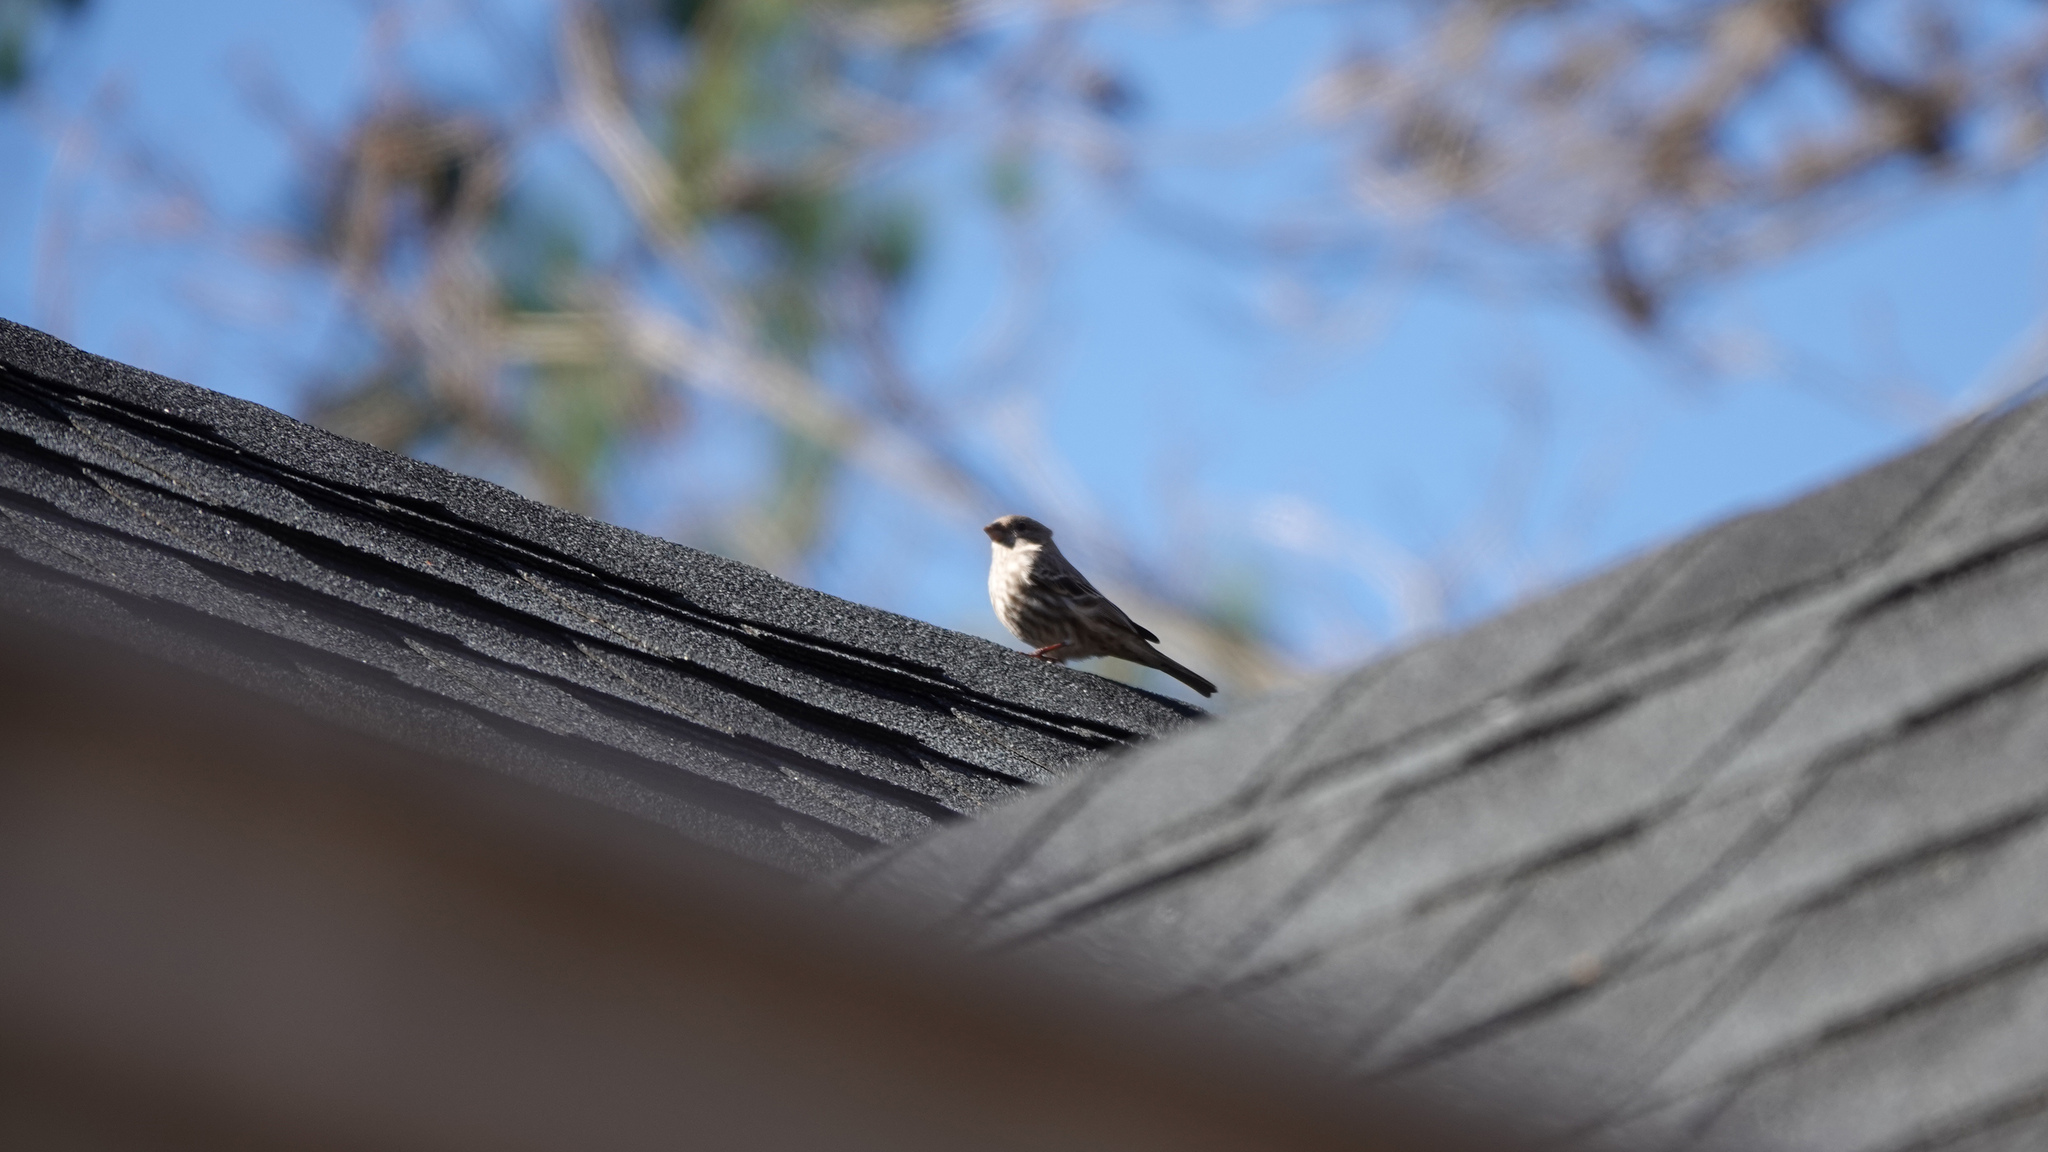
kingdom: Animalia
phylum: Chordata
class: Aves
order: Passeriformes
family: Fringillidae
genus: Haemorhous
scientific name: Haemorhous mexicanus
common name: House finch
